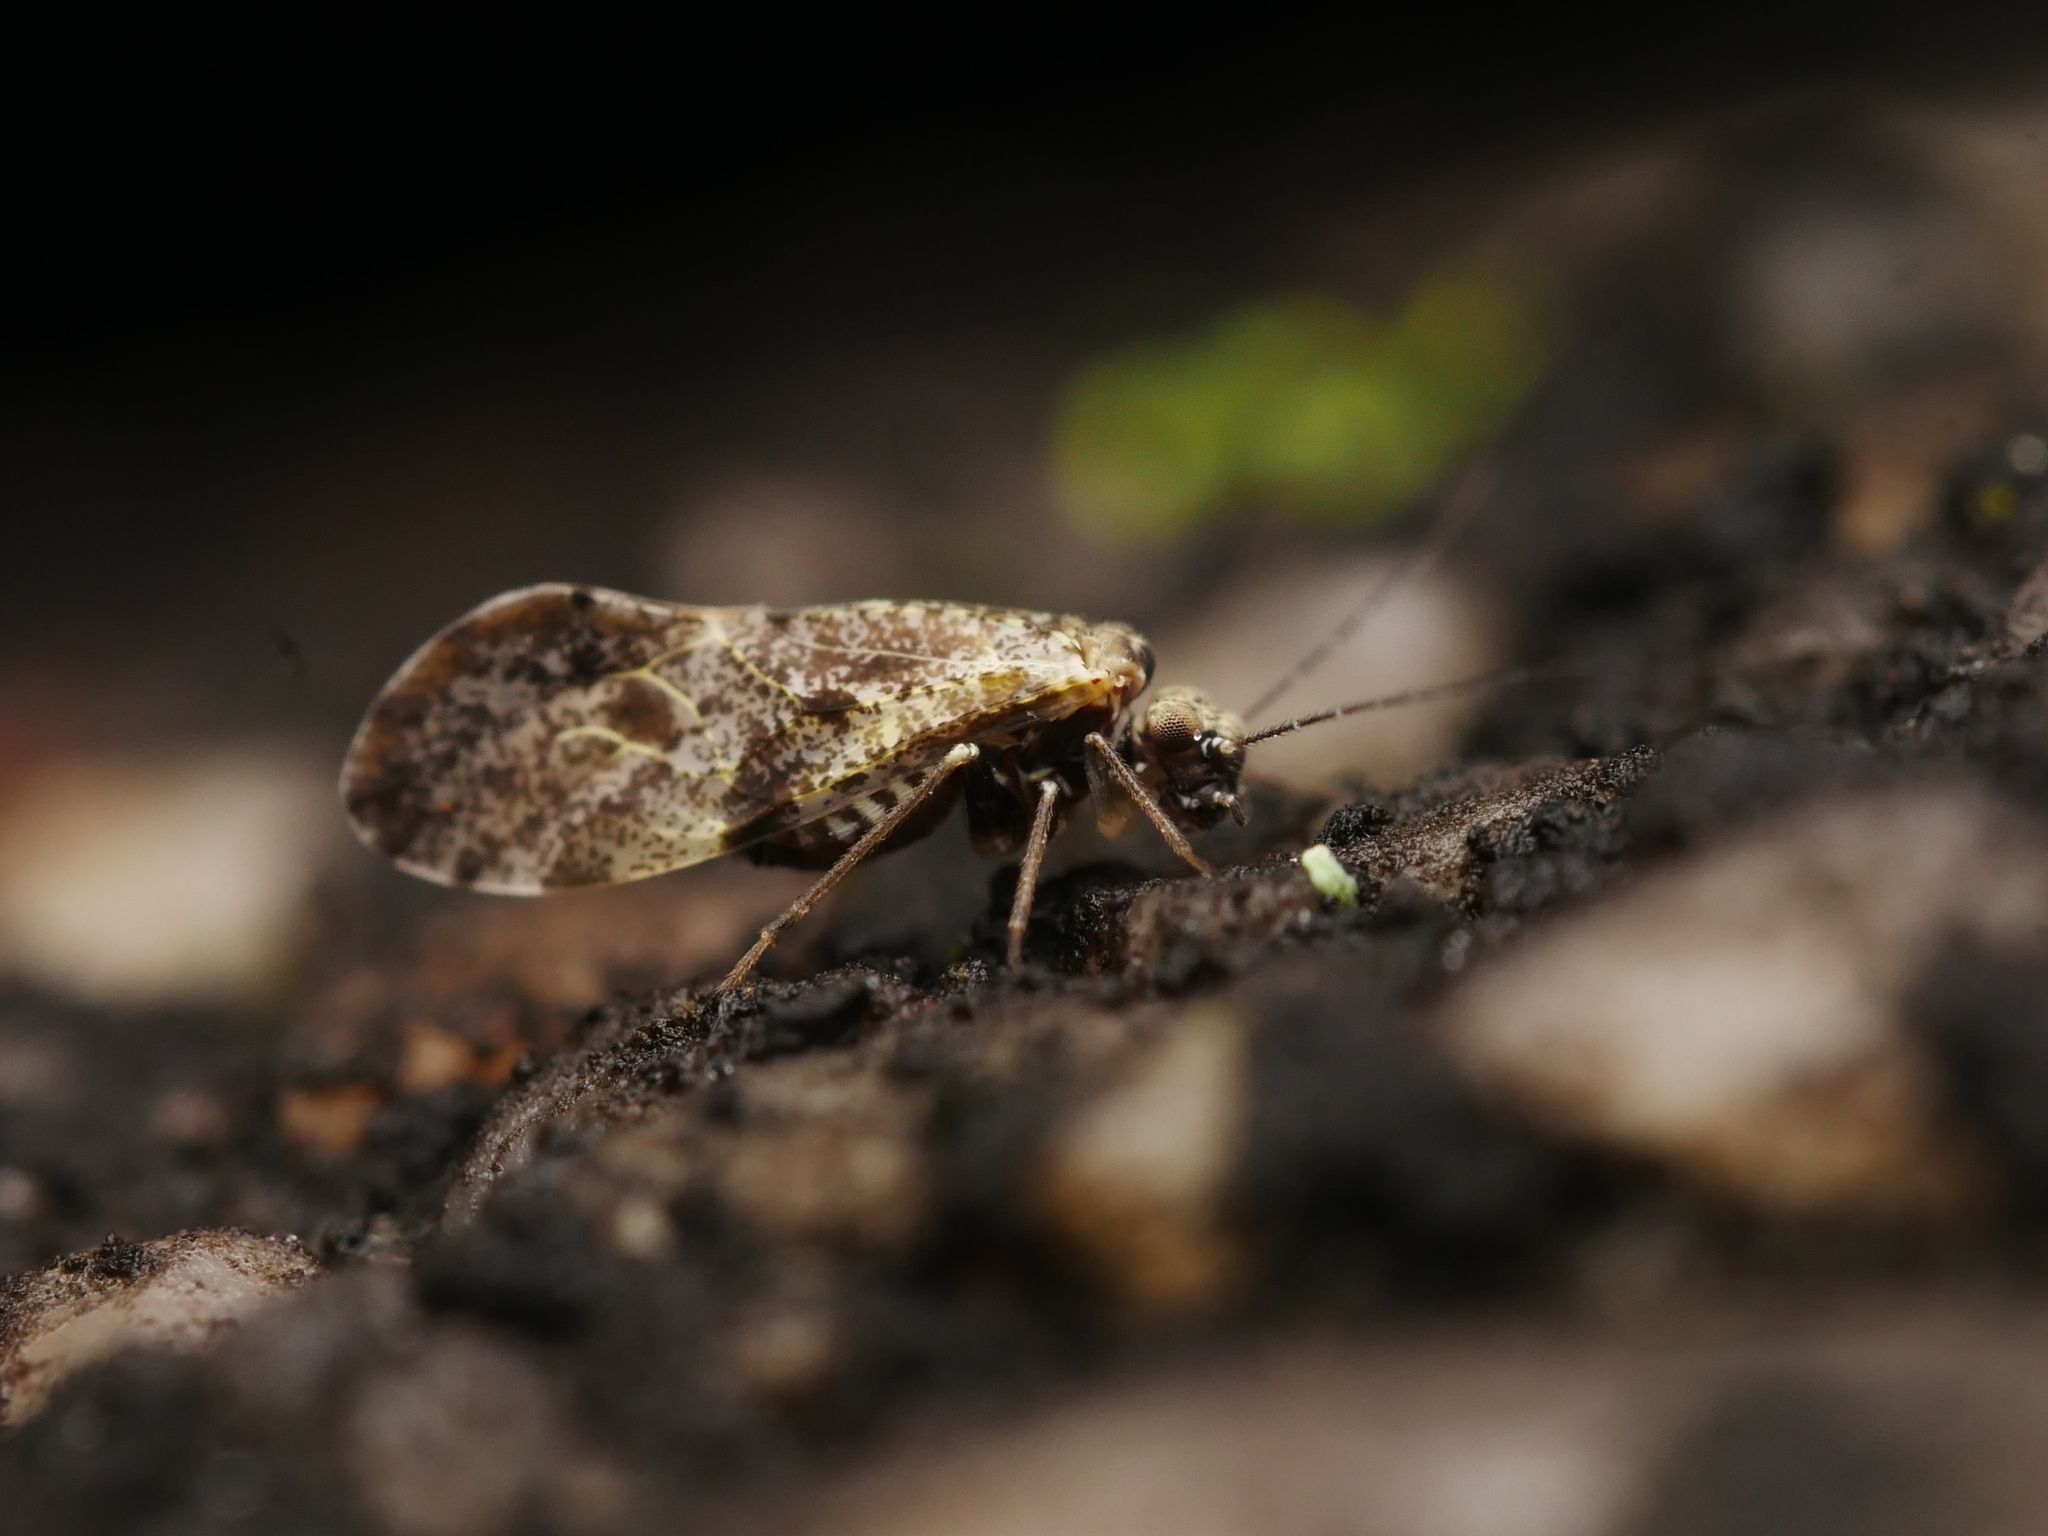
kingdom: Animalia
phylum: Arthropoda
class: Insecta
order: Psocodea
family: Psocidae
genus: Loensia
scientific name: Loensia variegata
